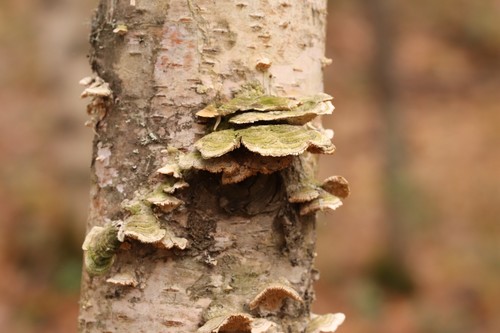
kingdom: Fungi
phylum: Basidiomycota
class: Agaricomycetes
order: Hymenochaetales
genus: Trichaptum
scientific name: Trichaptum biforme
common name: Violet-toothed polypore
